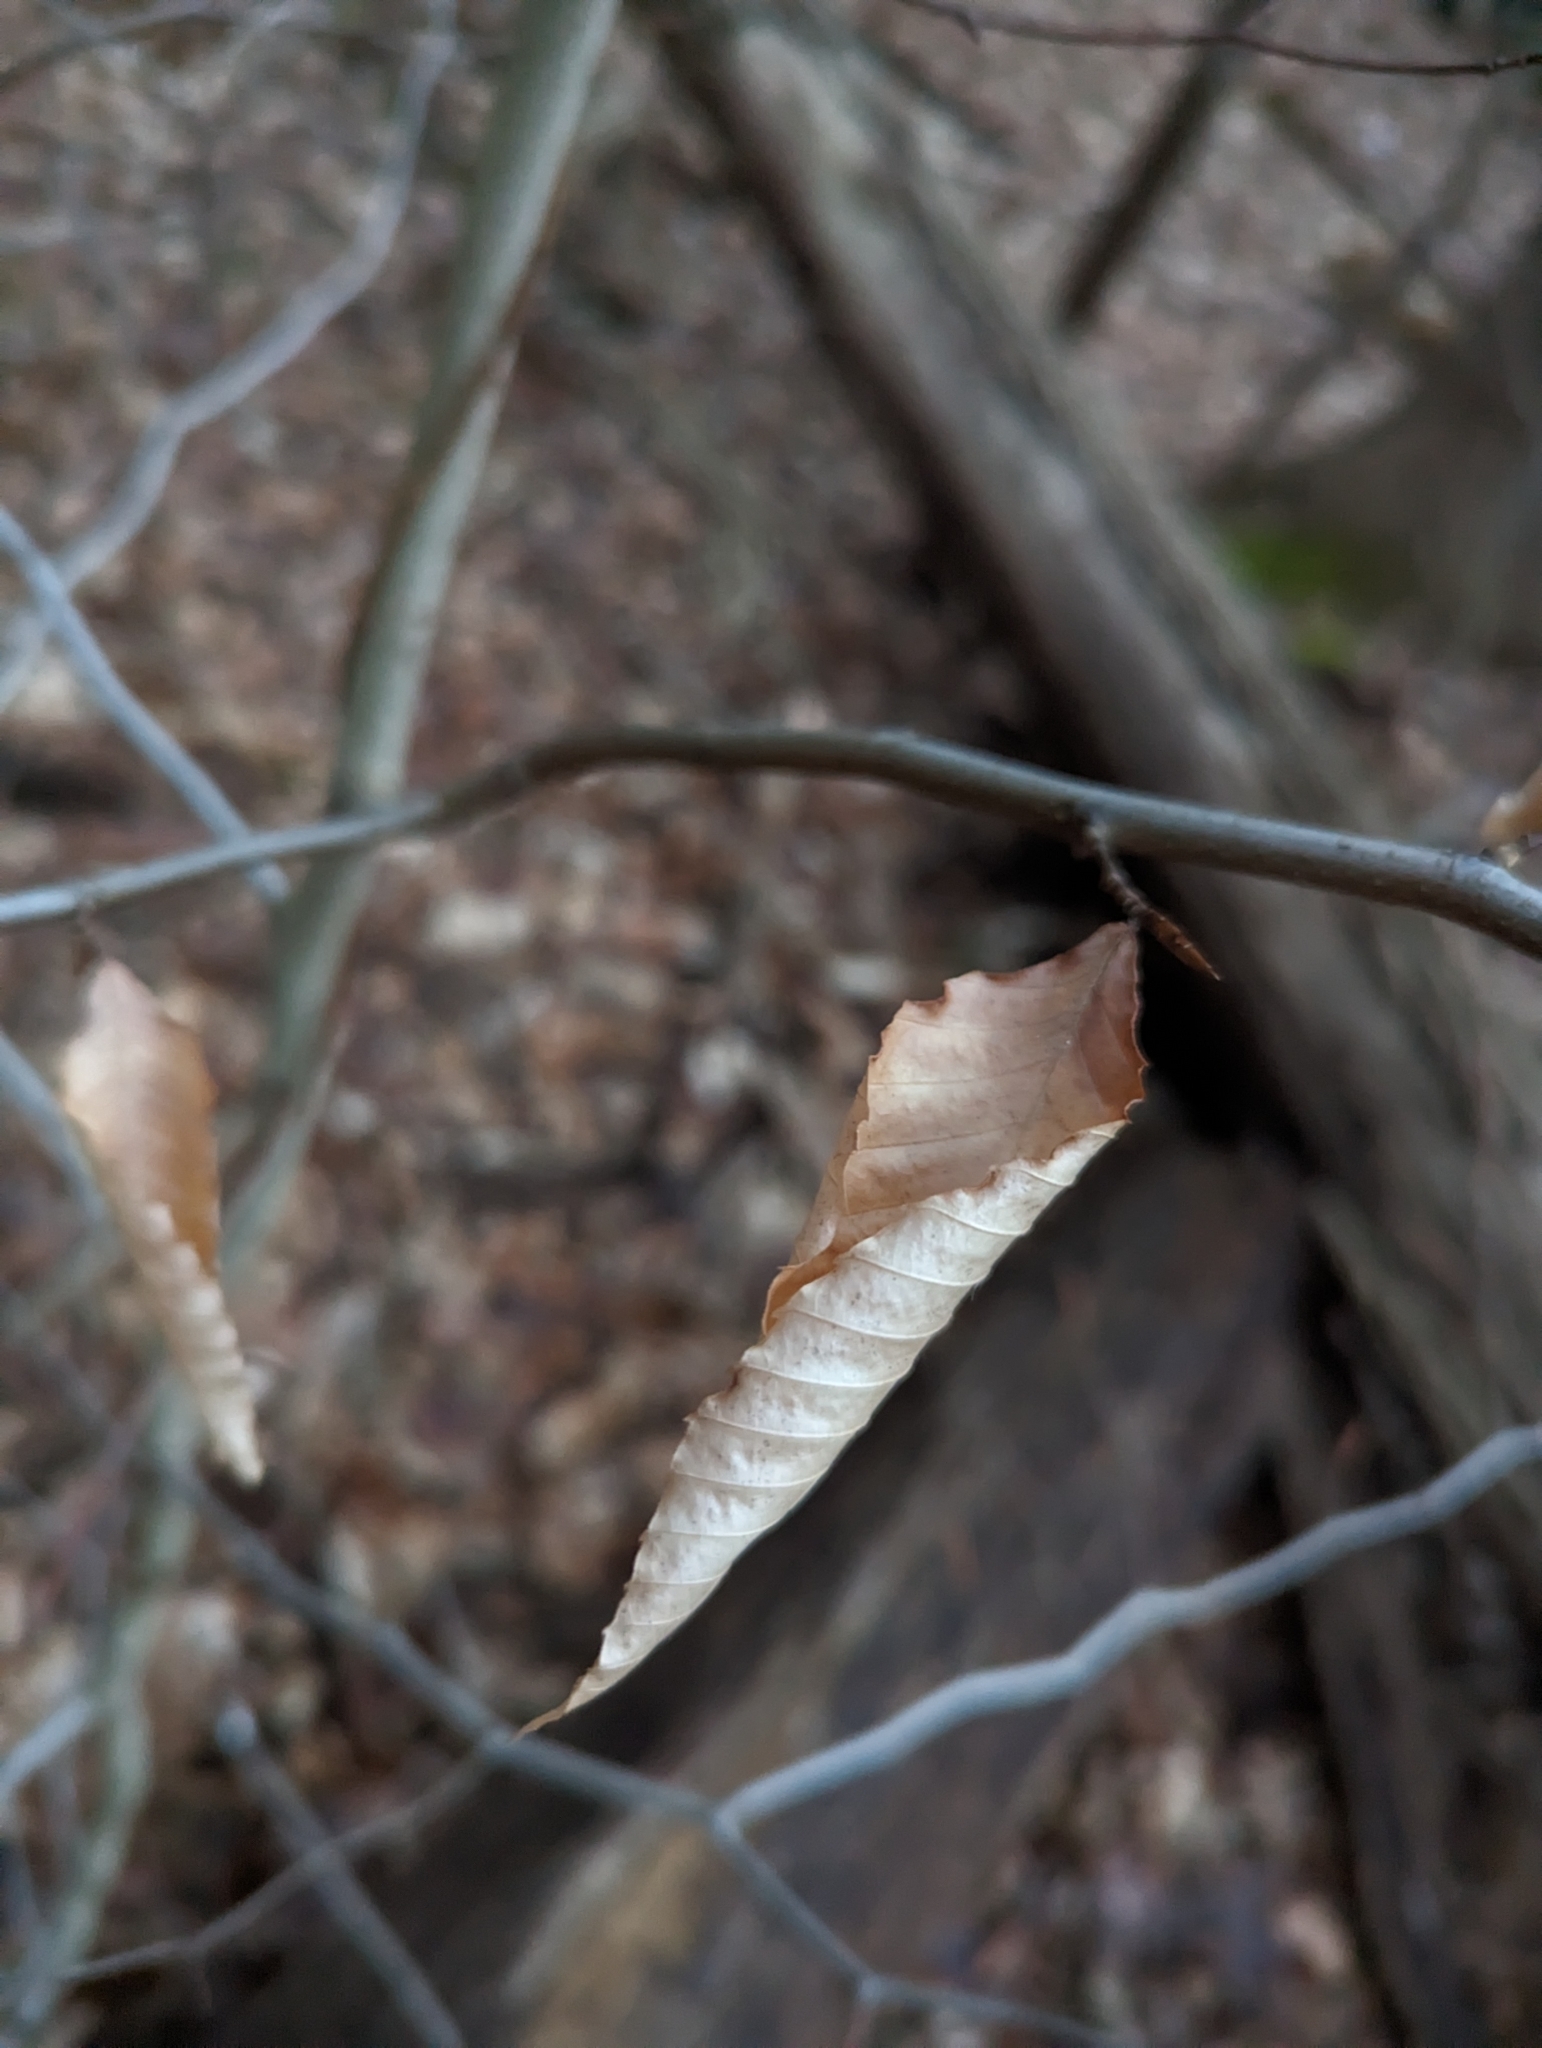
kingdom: Plantae
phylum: Tracheophyta
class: Magnoliopsida
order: Fagales
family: Fagaceae
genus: Fagus
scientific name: Fagus grandifolia
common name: American beech
